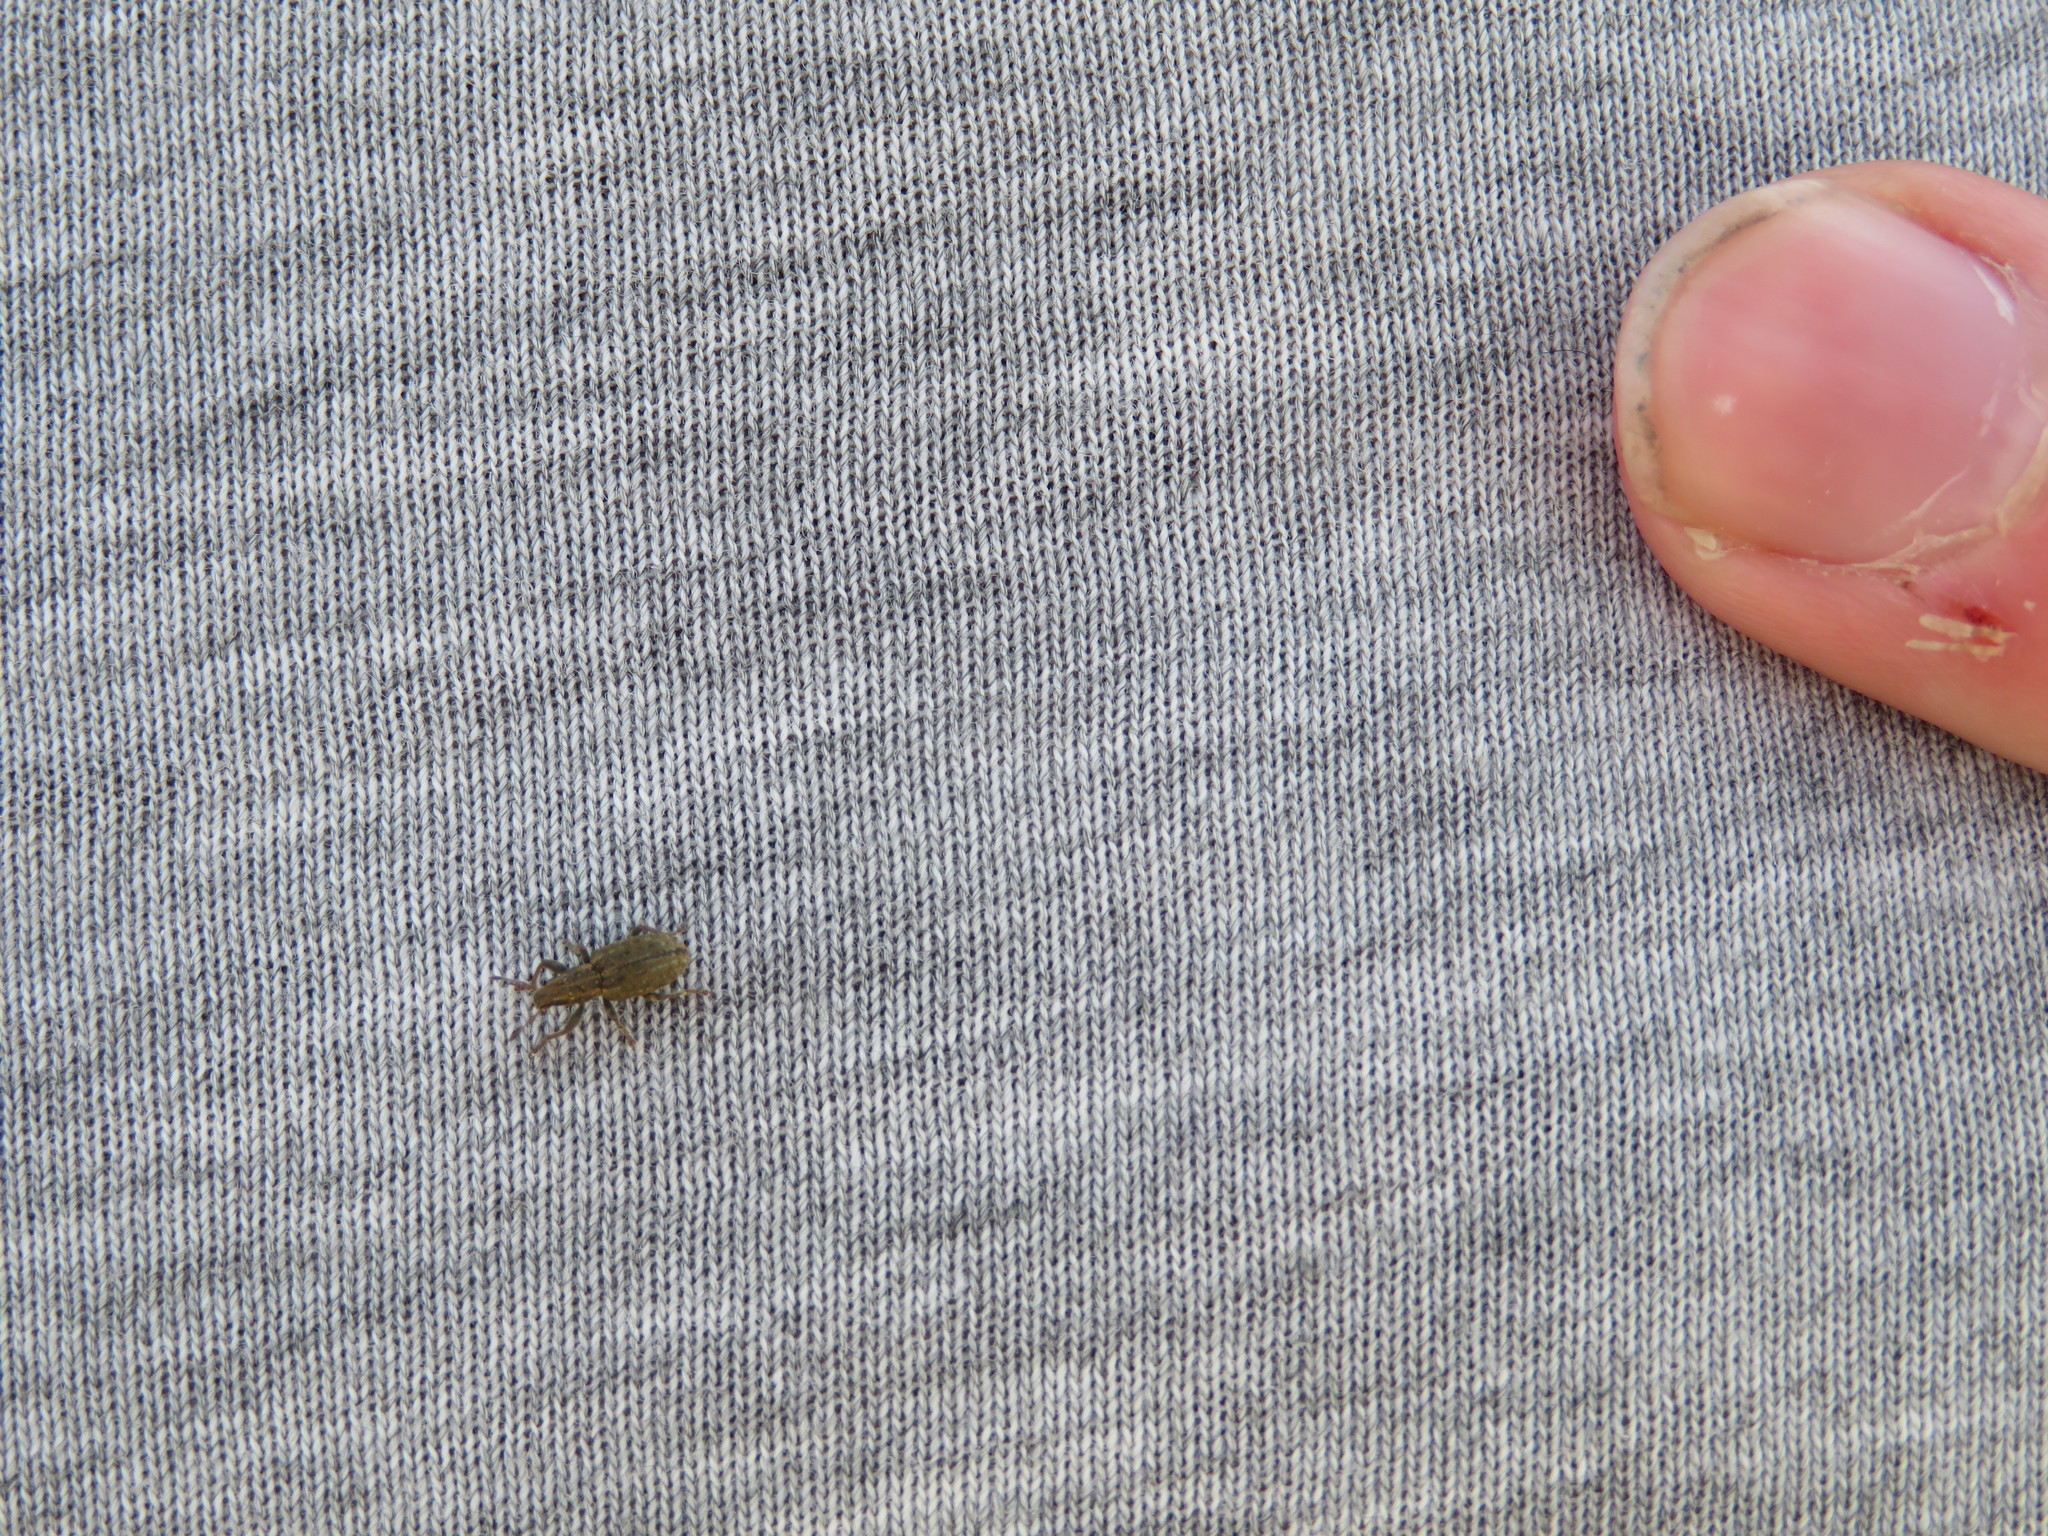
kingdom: Animalia
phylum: Arthropoda
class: Insecta
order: Coleoptera
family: Curculionidae
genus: Sitona
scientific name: Sitona obsoletus
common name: Weevil
